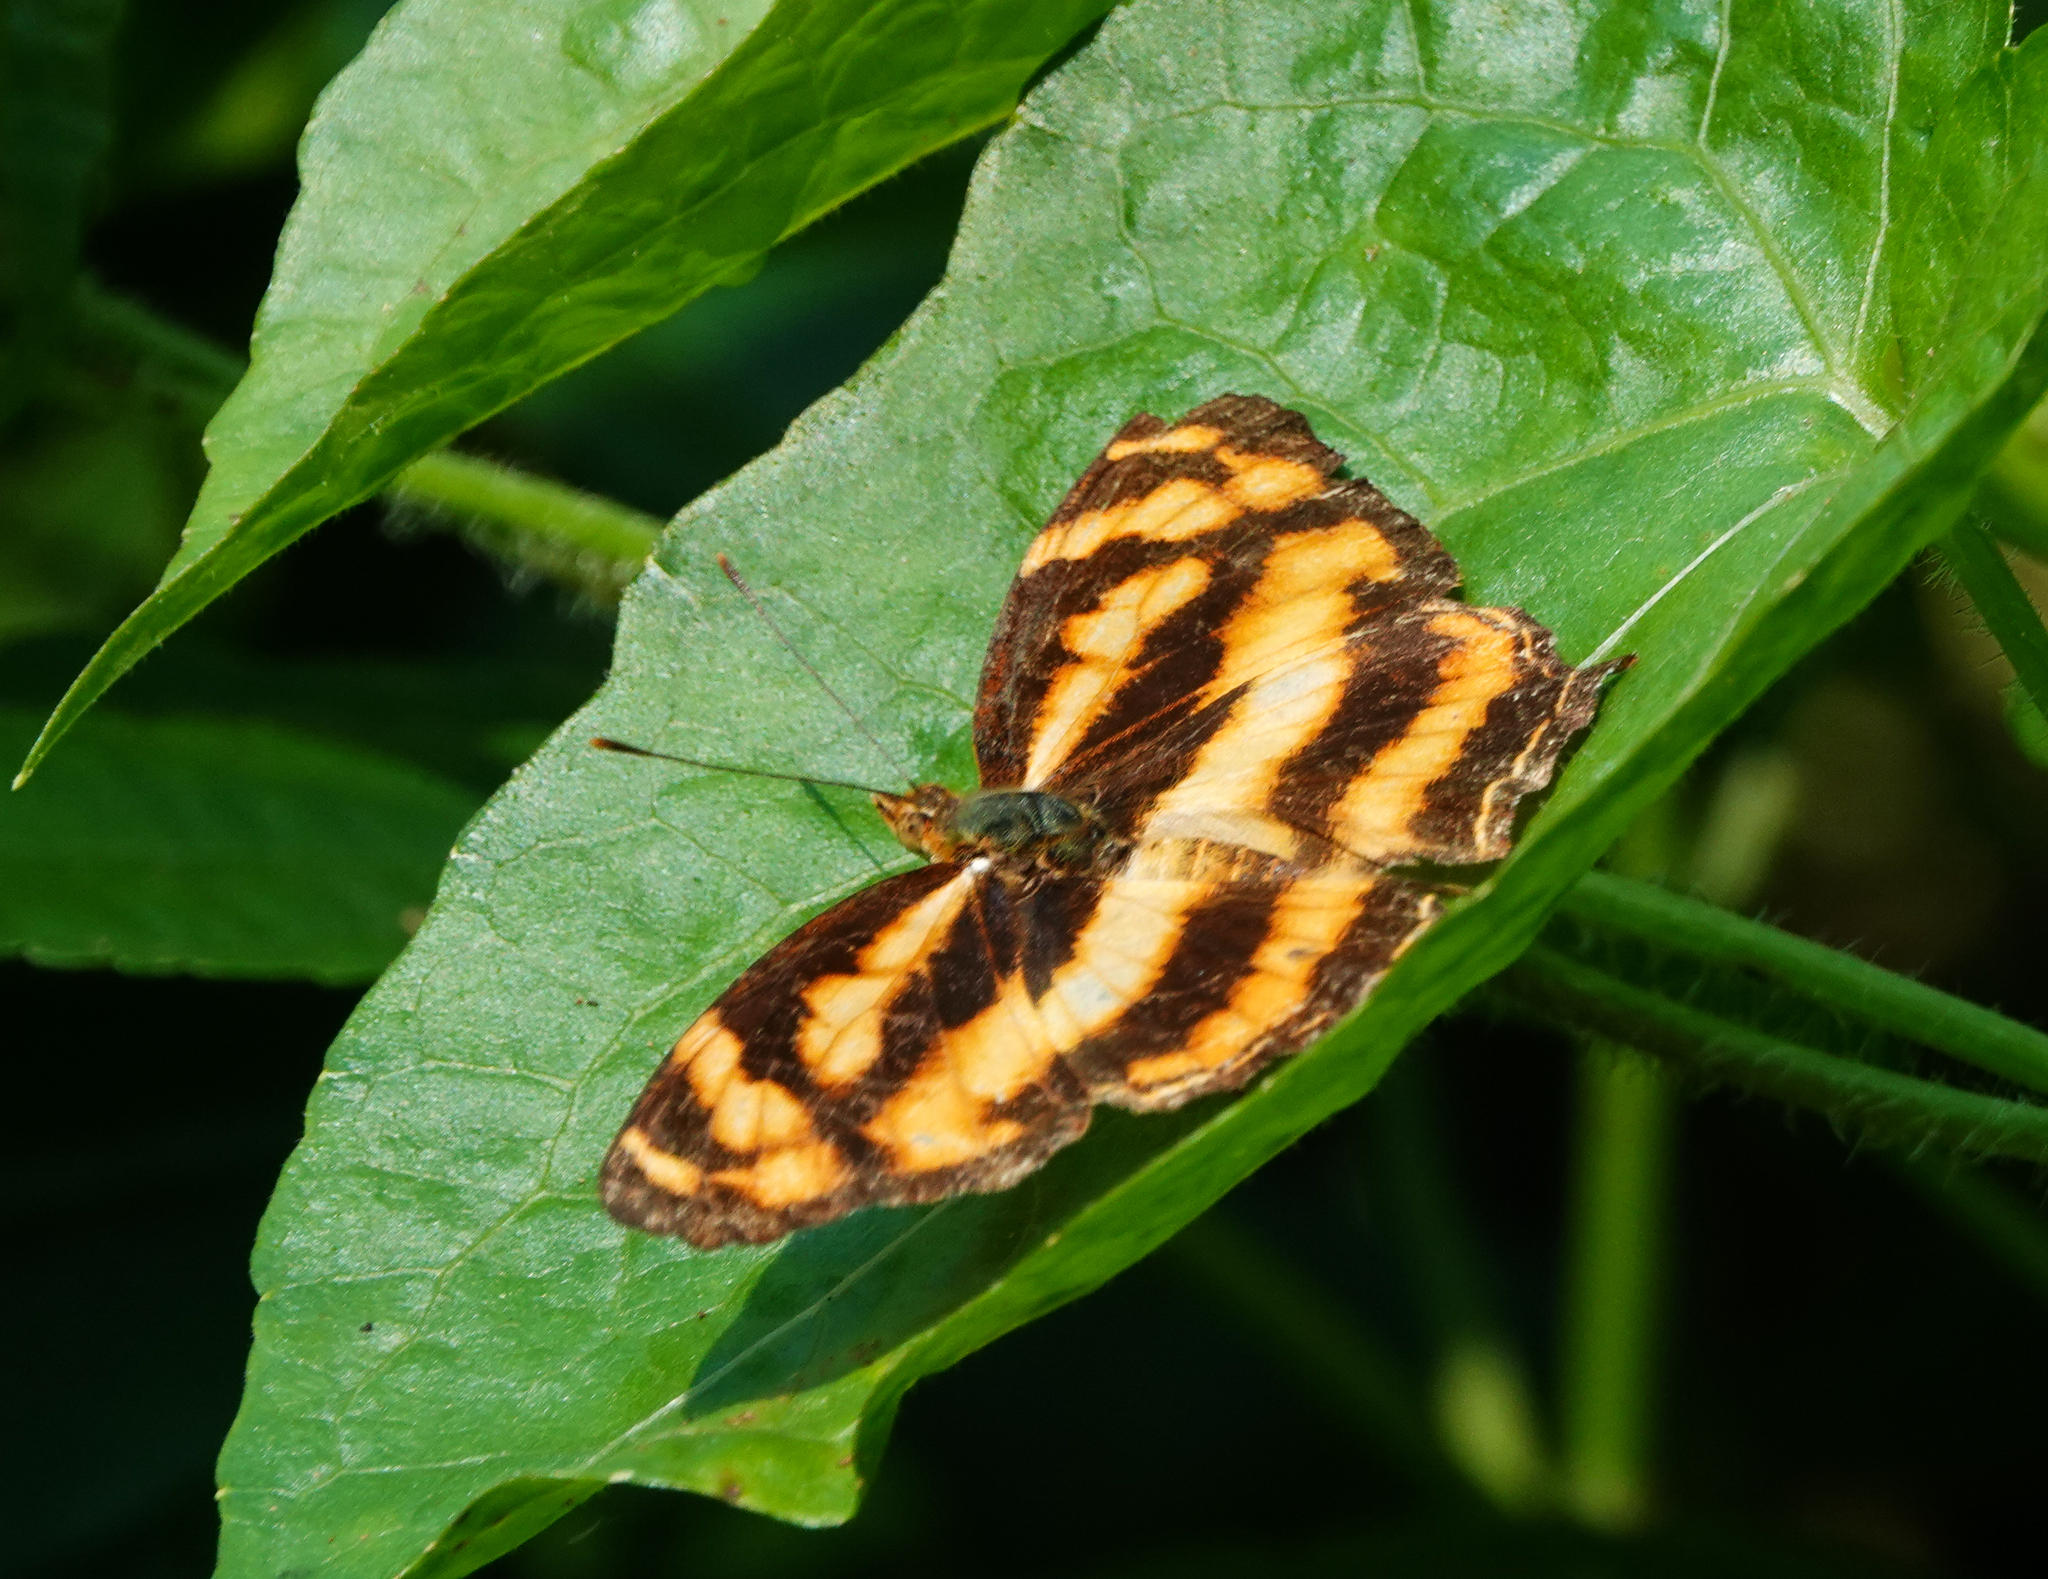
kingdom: Animalia
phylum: Arthropoda
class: Insecta
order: Lepidoptera
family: Nymphalidae
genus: Symbrenthia
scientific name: Symbrenthia hypselis
